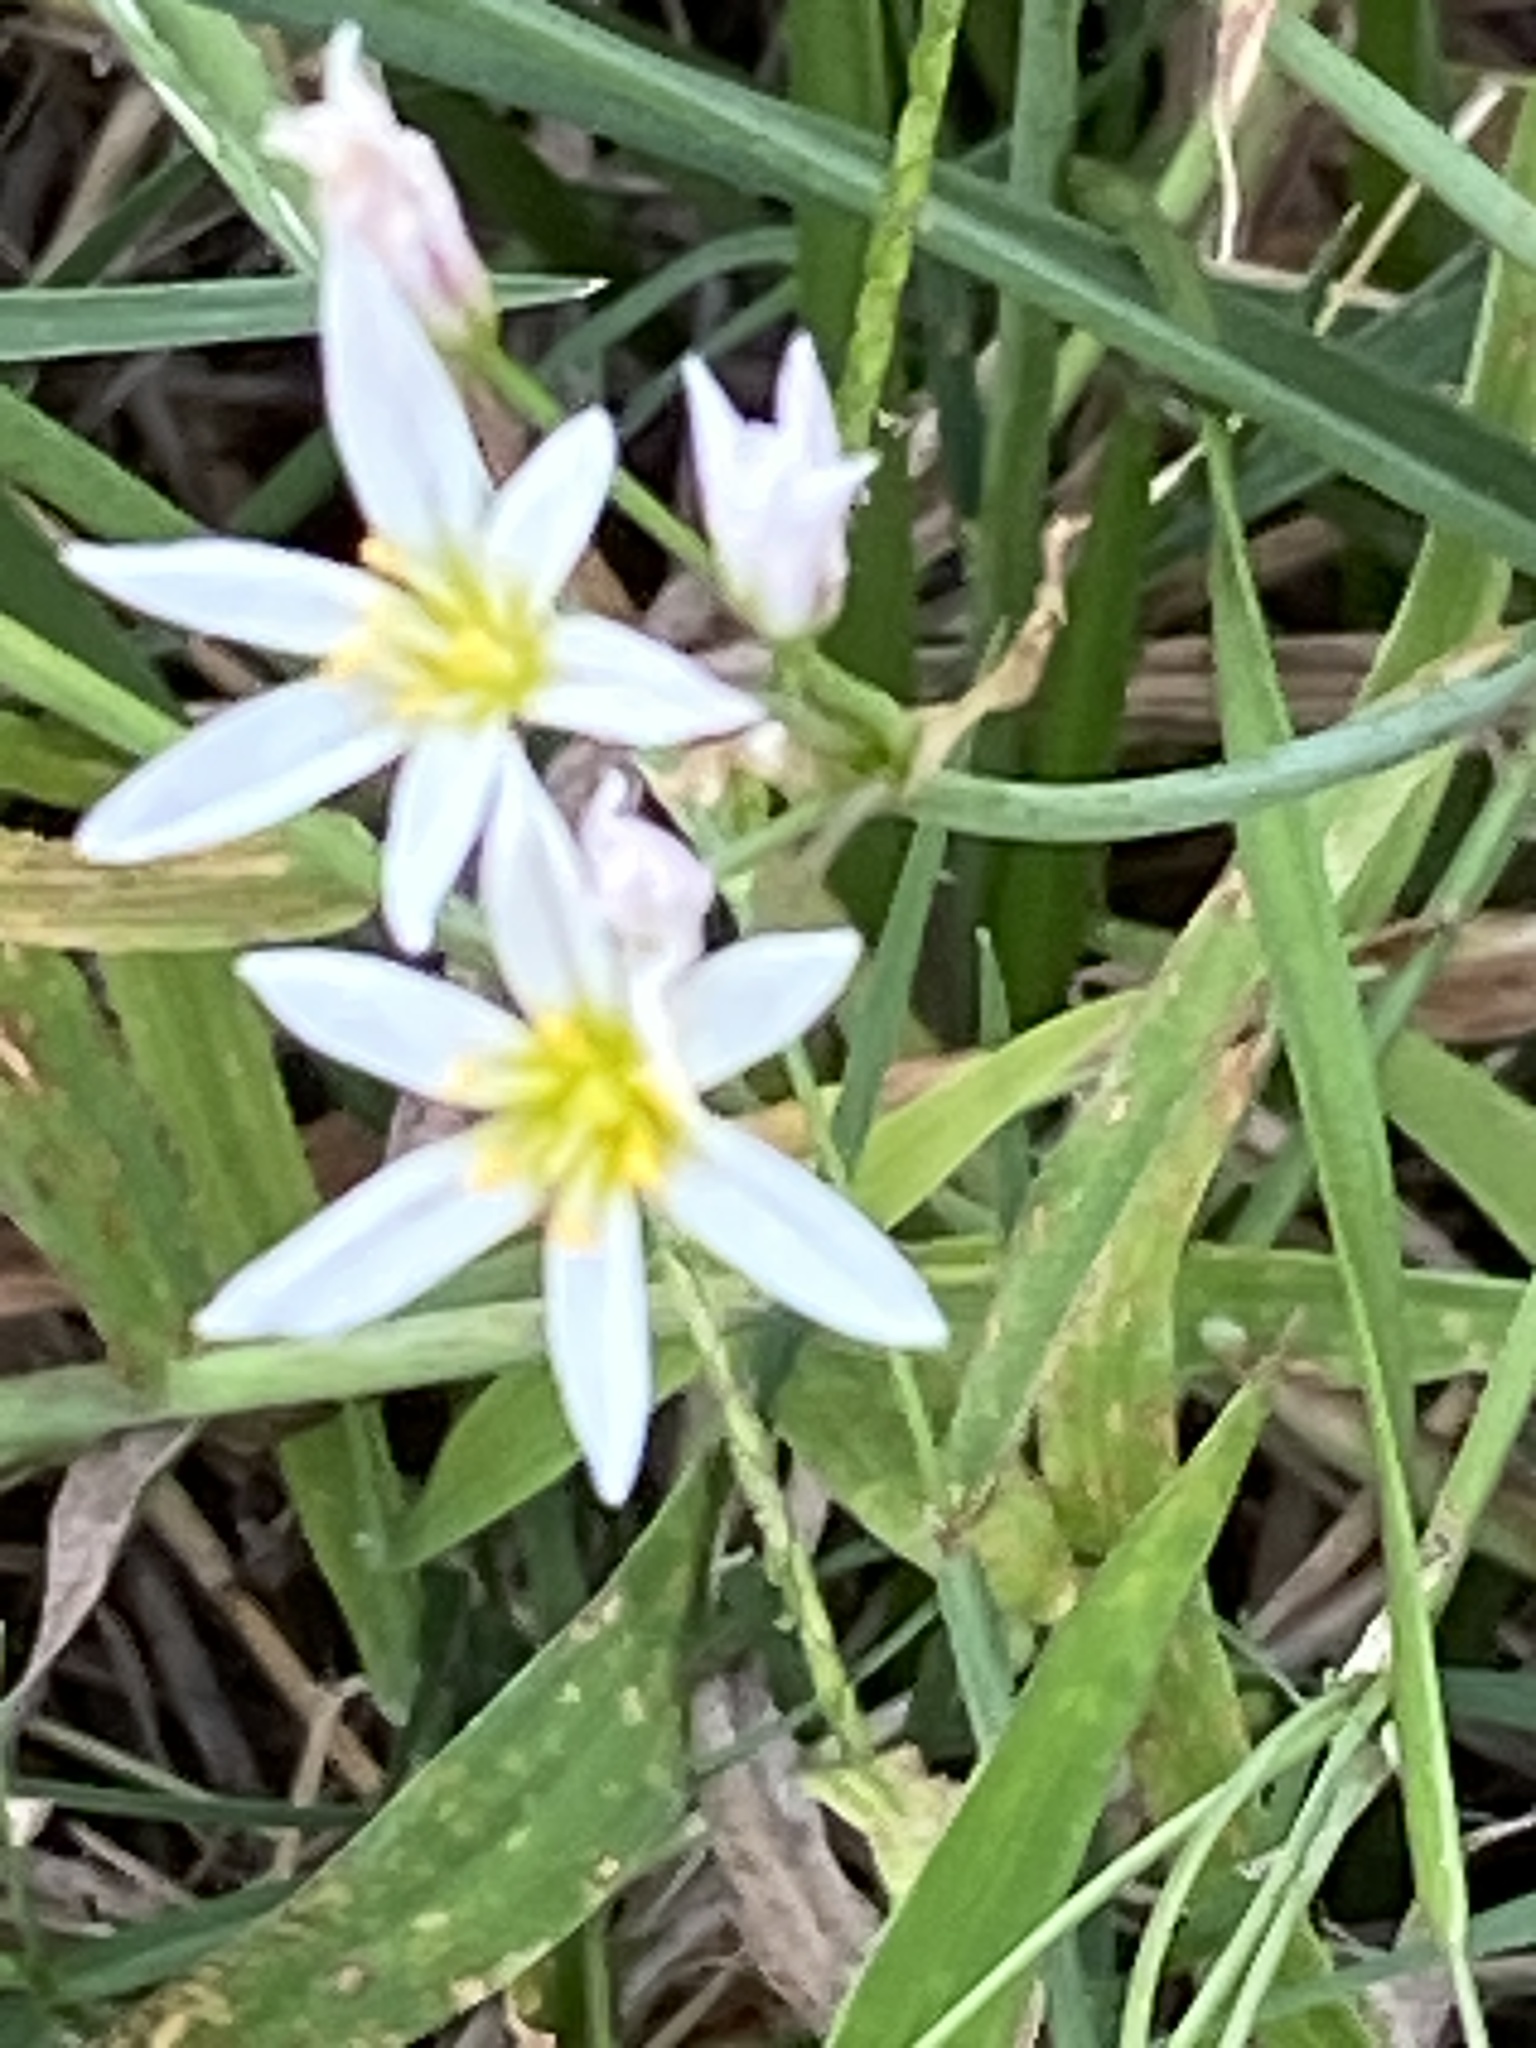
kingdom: Plantae
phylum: Tracheophyta
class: Liliopsida
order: Asparagales
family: Amaryllidaceae
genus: Nothoscordum
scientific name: Nothoscordum bivalve
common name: Crow-poison
